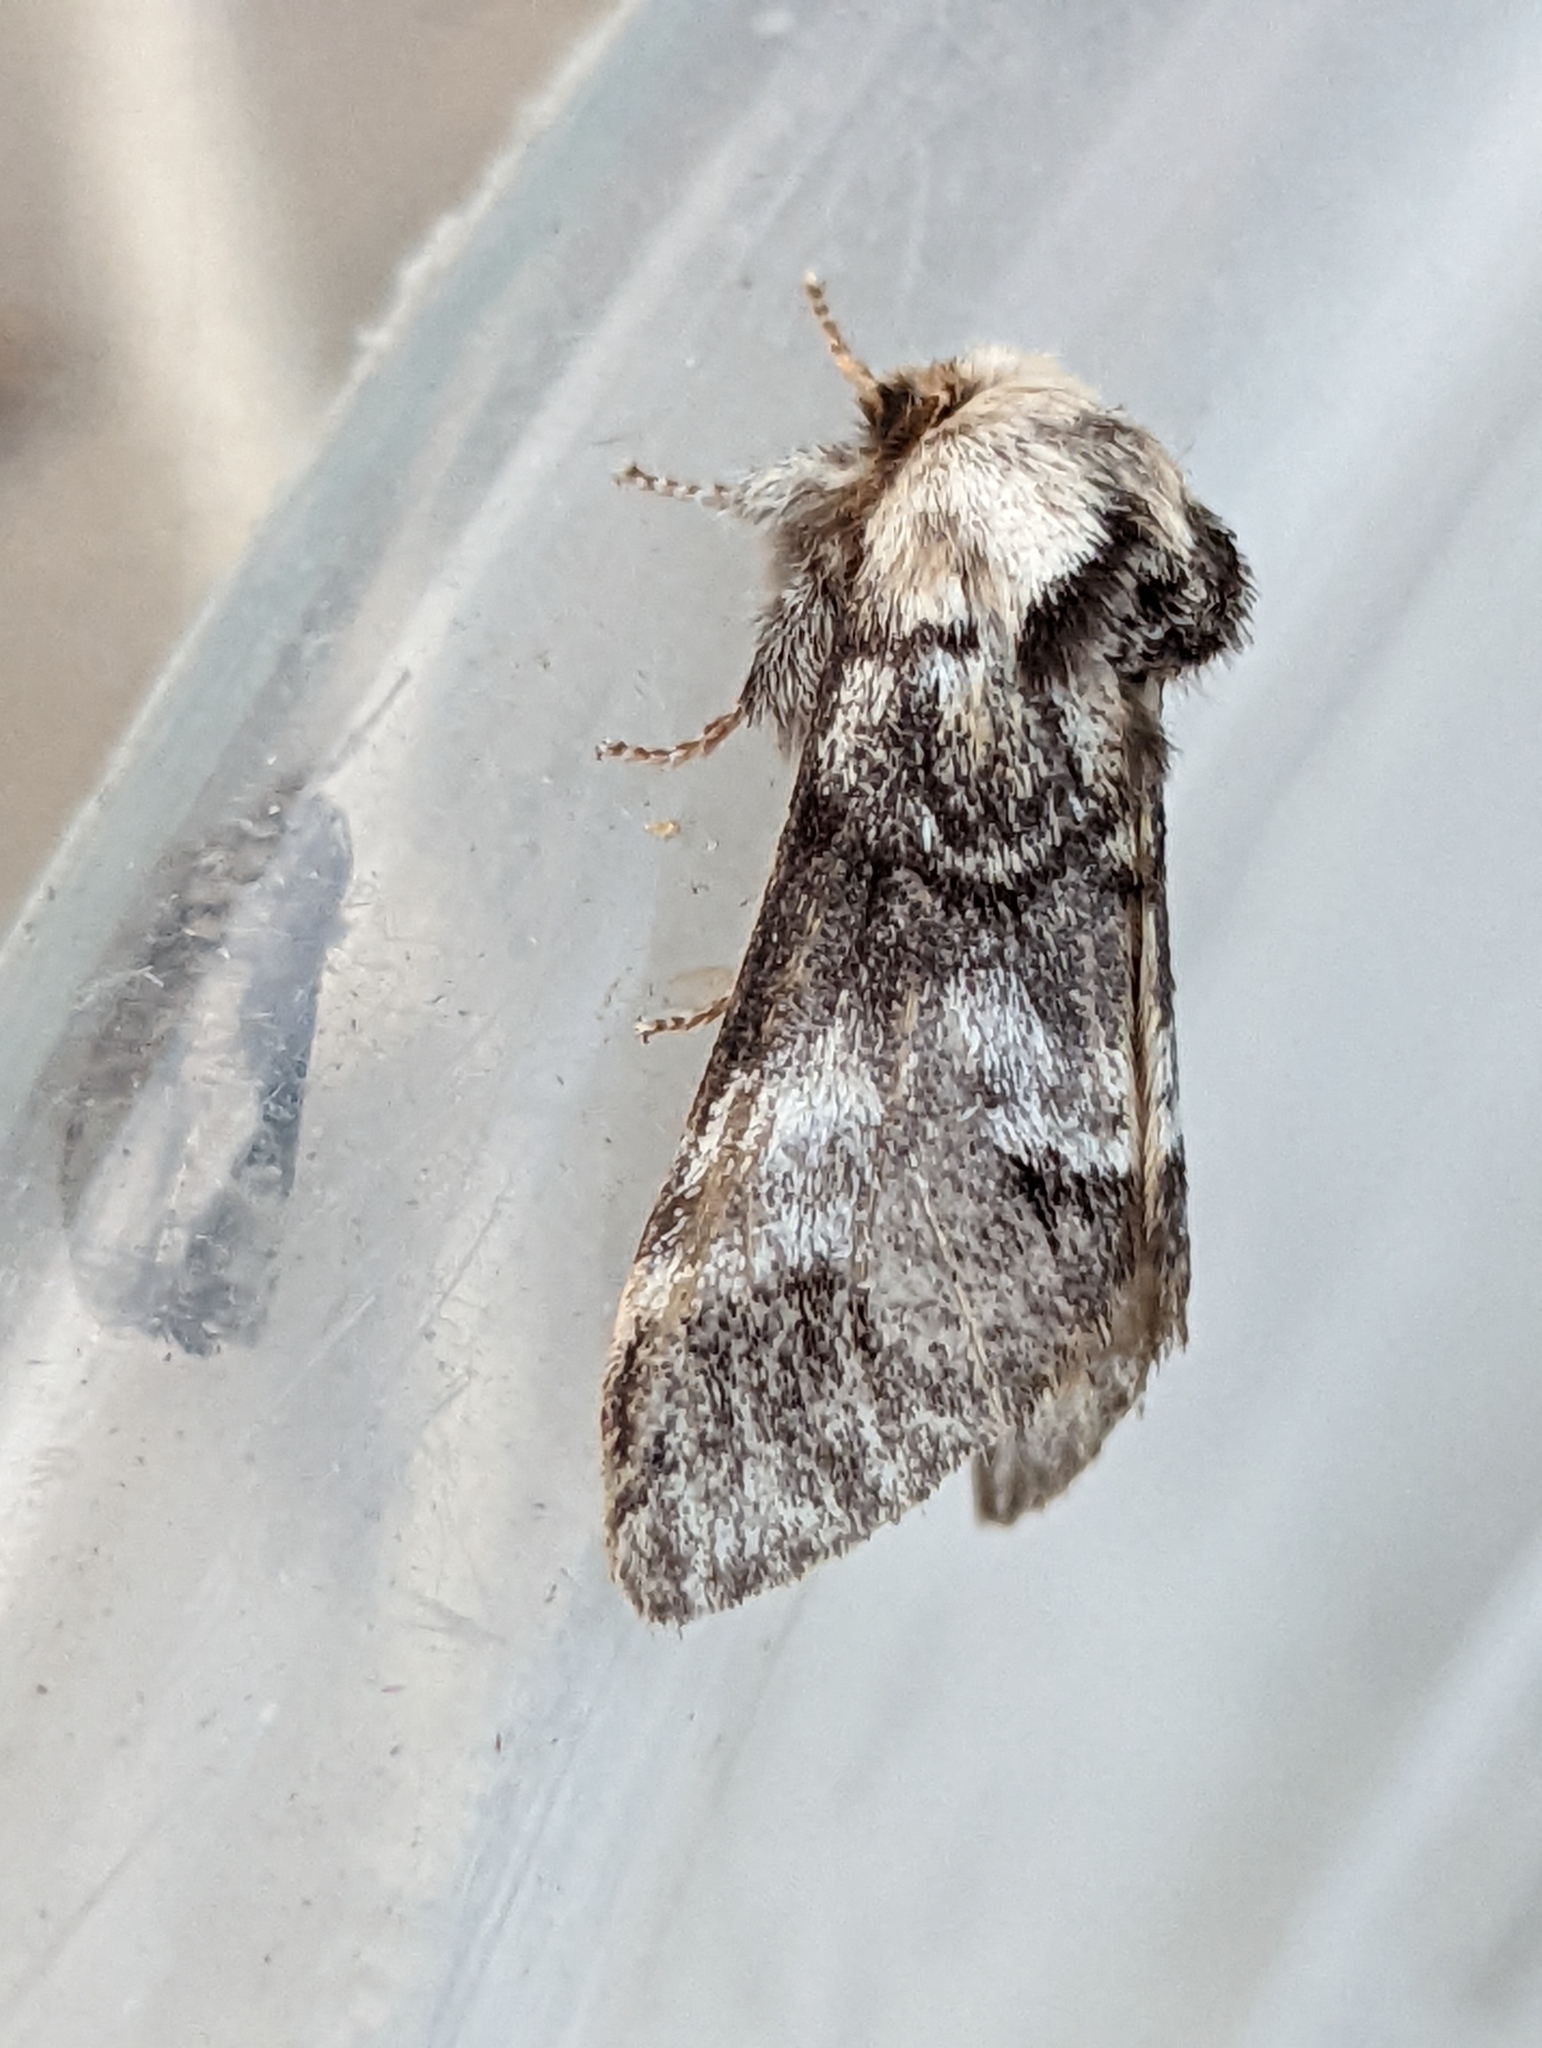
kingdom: Animalia
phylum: Arthropoda
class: Insecta
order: Lepidoptera
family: Notodontidae
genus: Drymonia
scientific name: Drymonia dodonaea
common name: Marbled brown
